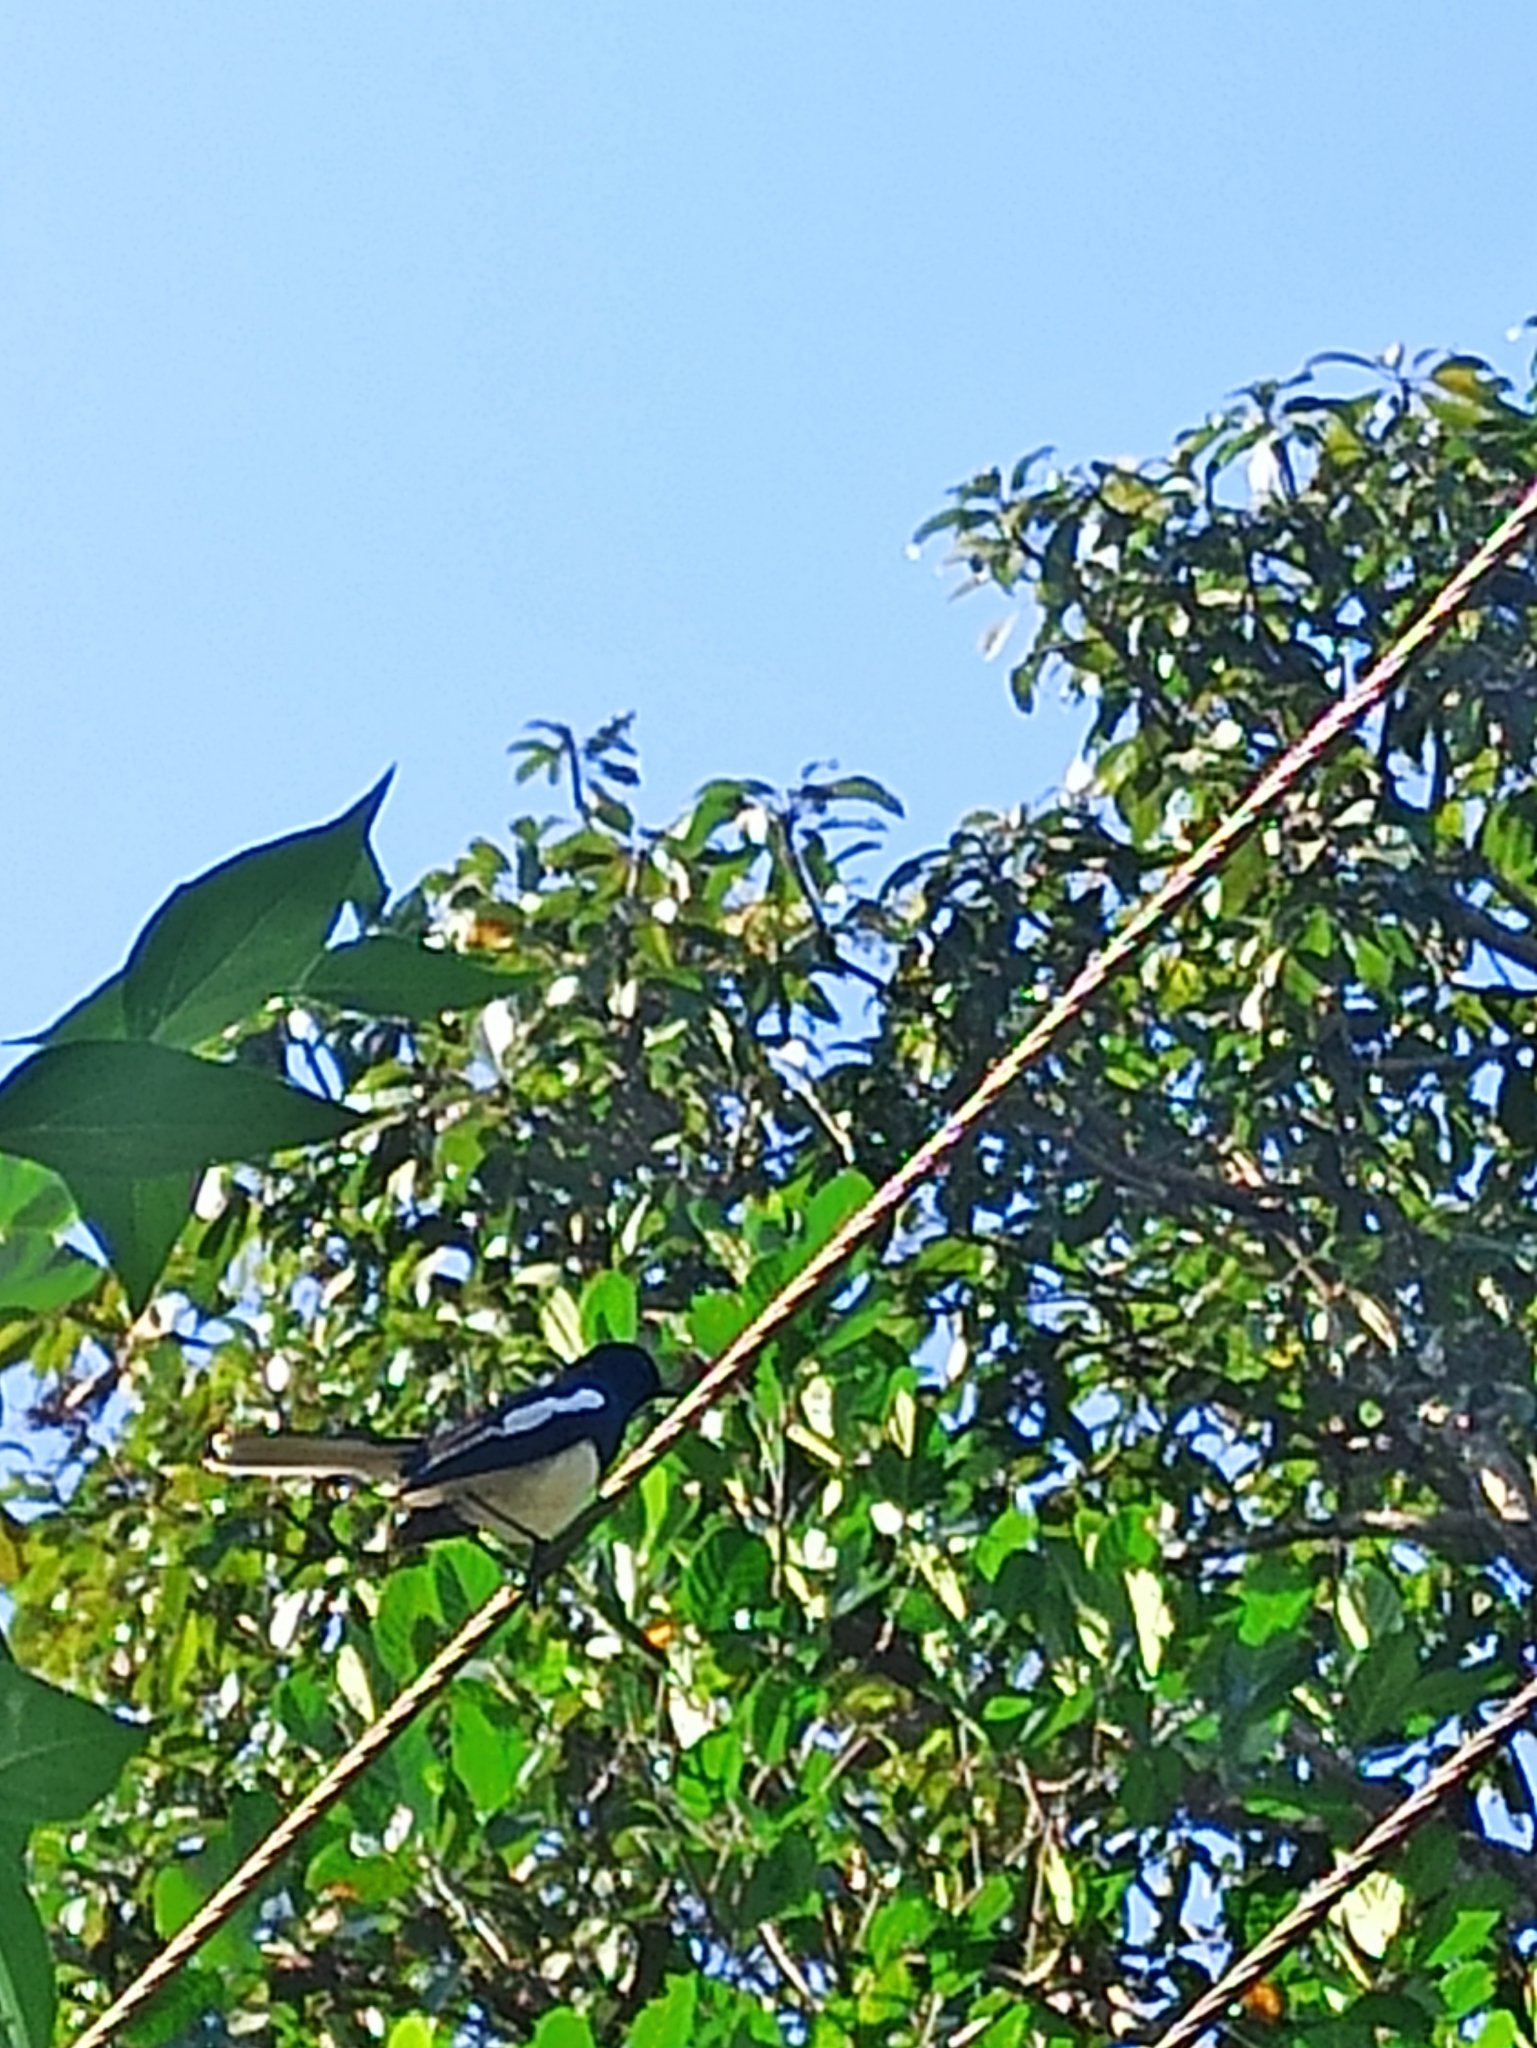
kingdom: Animalia
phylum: Chordata
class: Aves
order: Passeriformes
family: Muscicapidae
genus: Copsychus
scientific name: Copsychus saularis
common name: Oriental magpie-robin
